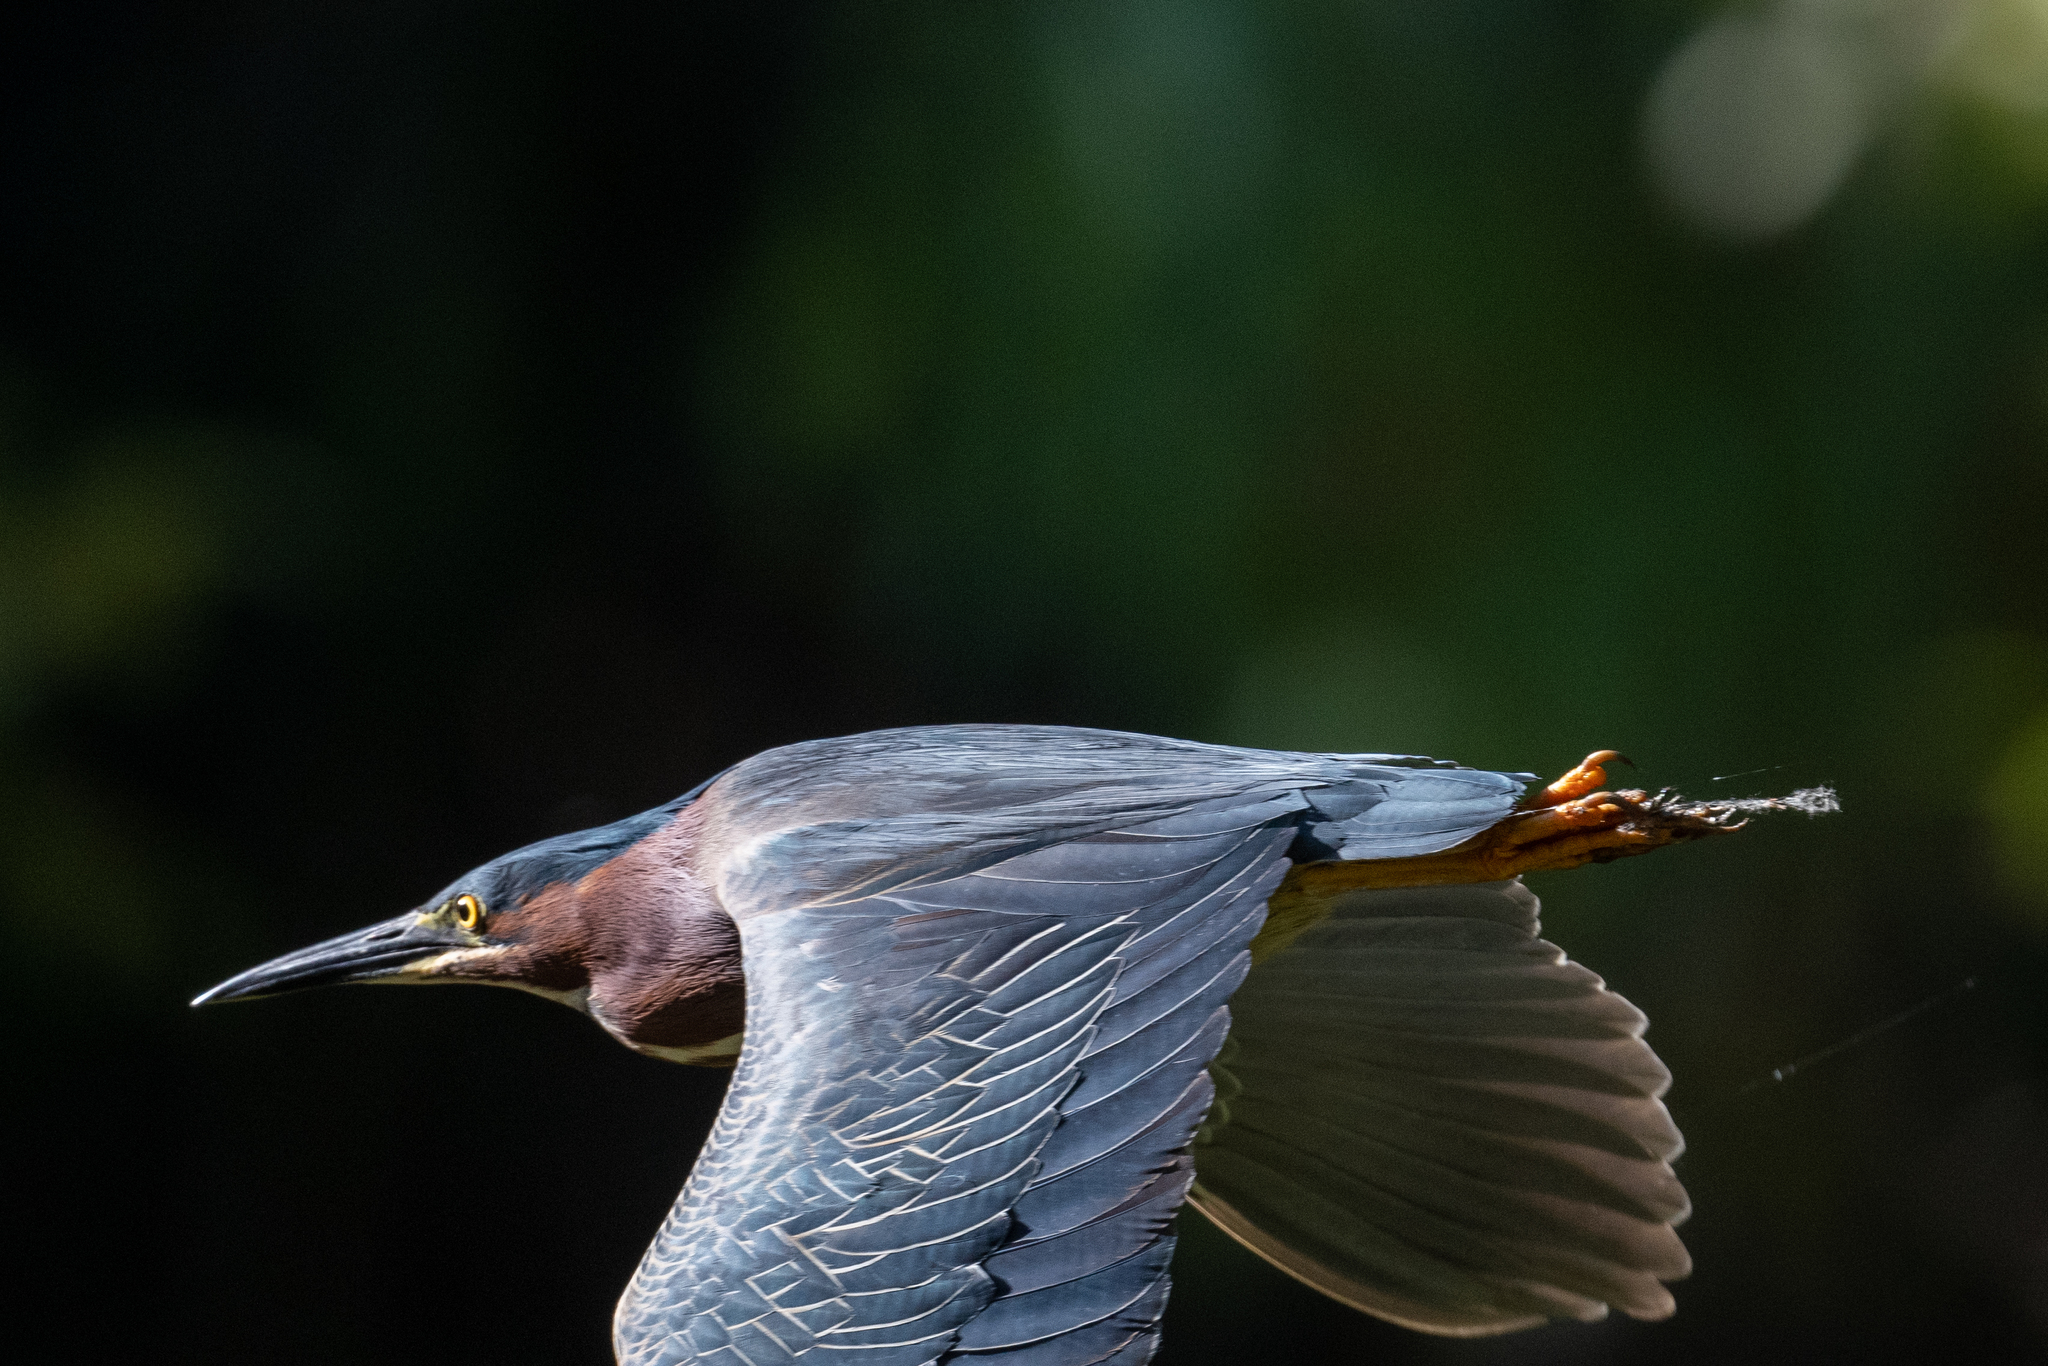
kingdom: Animalia
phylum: Chordata
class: Aves
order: Pelecaniformes
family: Ardeidae
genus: Butorides
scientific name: Butorides virescens
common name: Green heron
